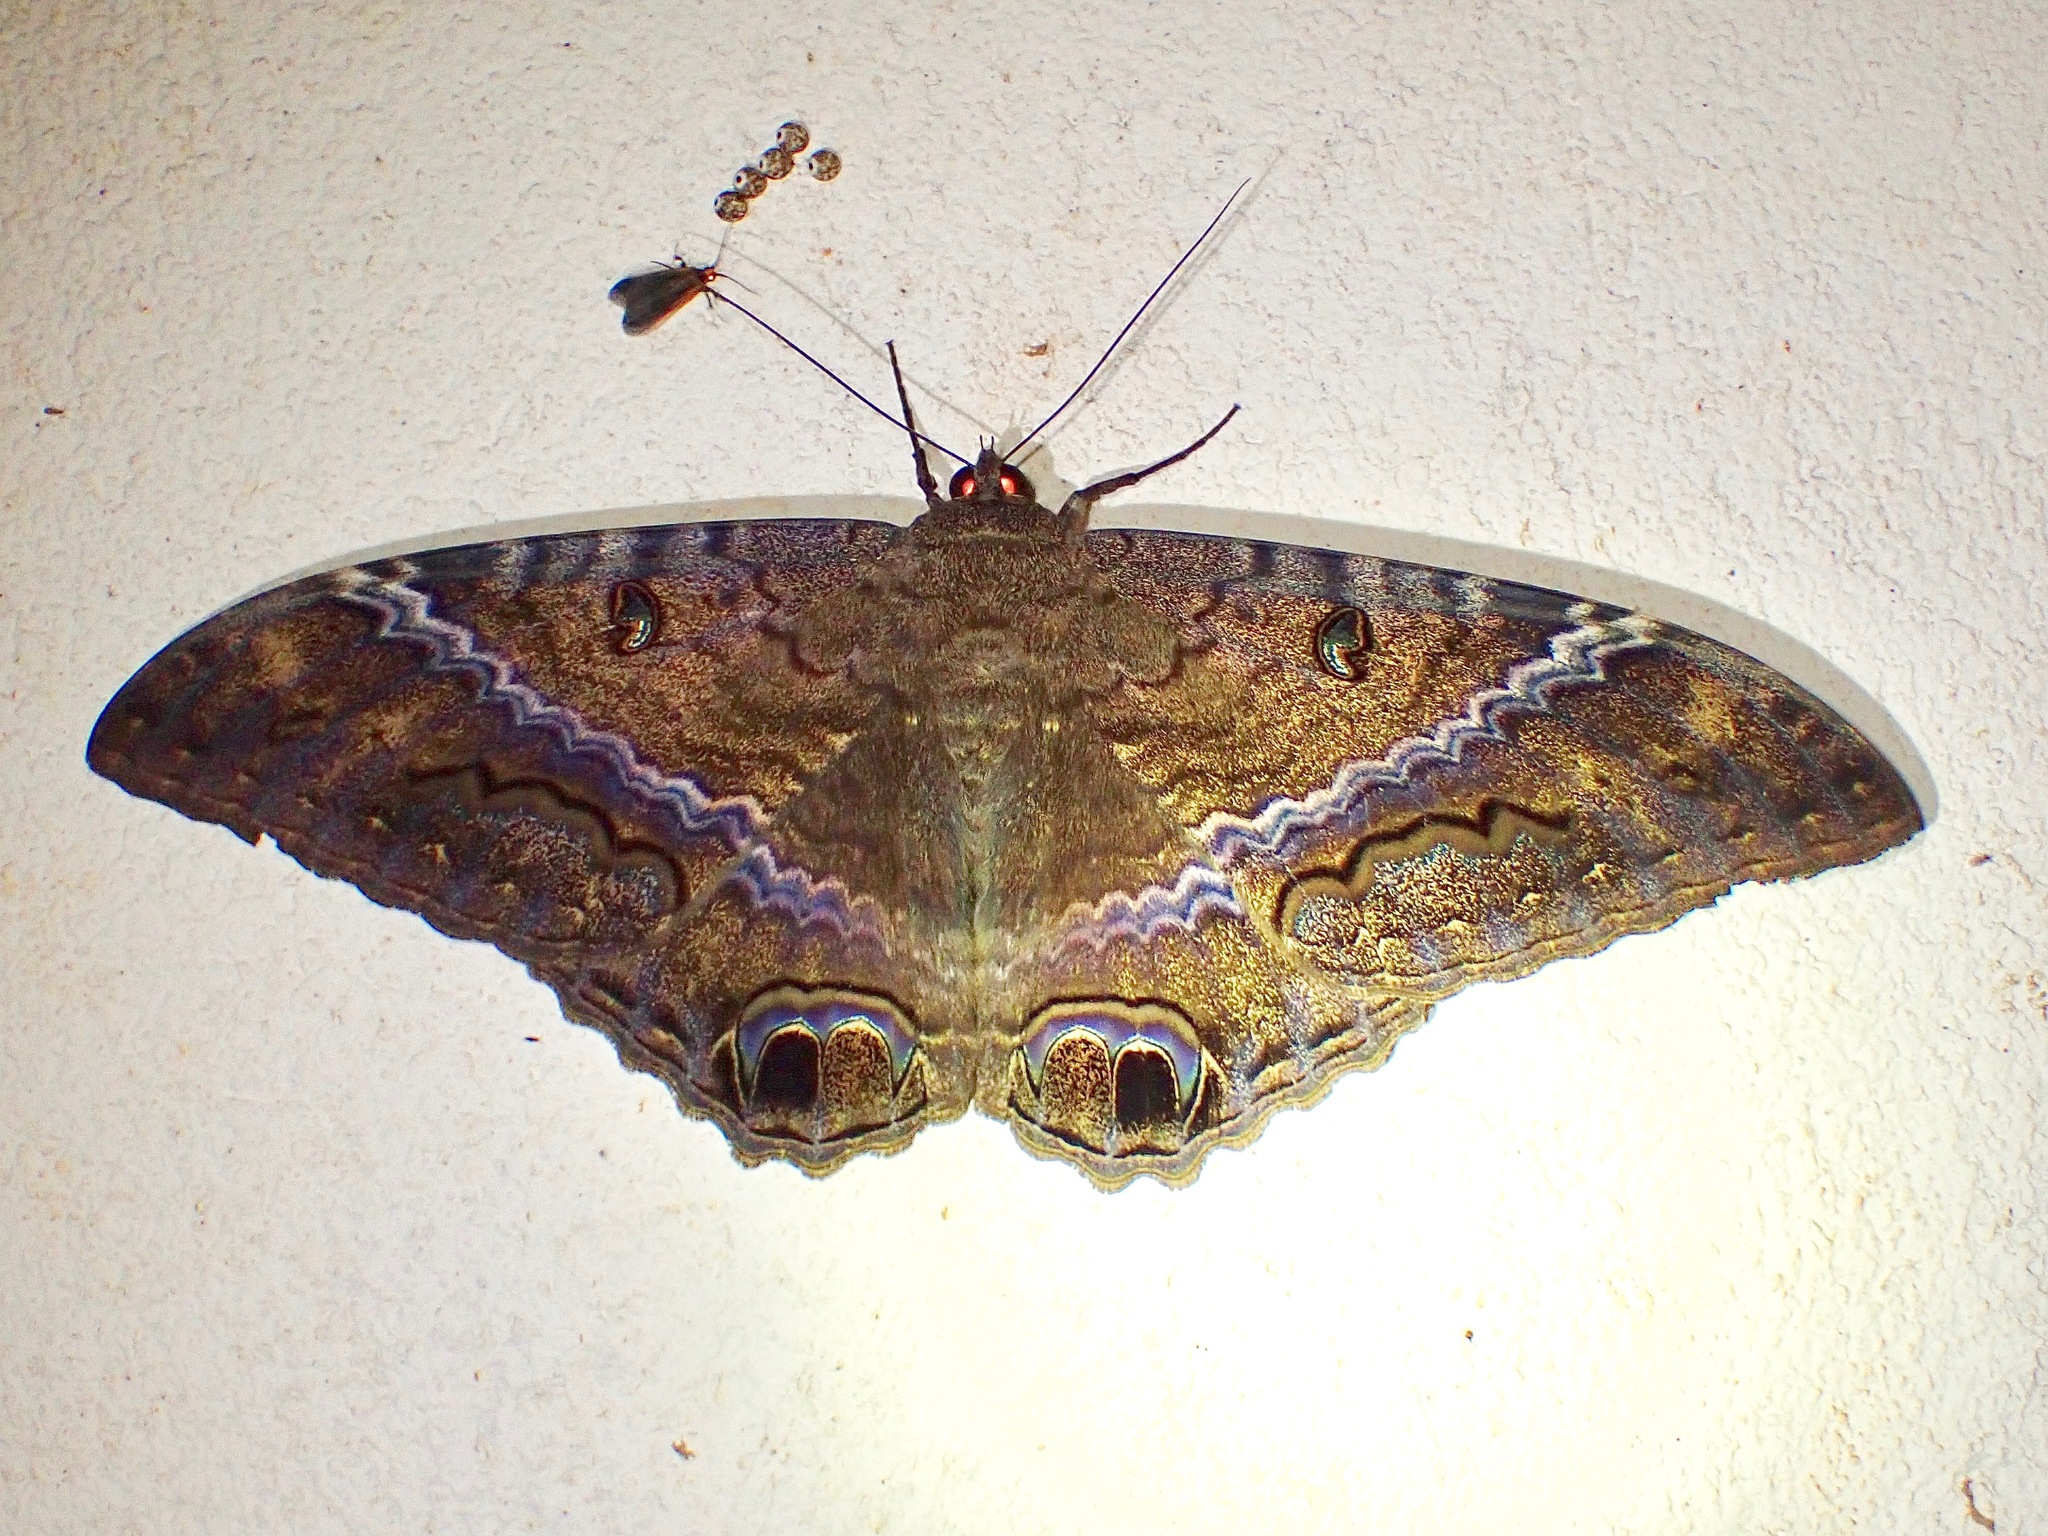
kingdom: Animalia
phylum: Arthropoda
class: Insecta
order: Lepidoptera
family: Erebidae
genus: Ascalapha
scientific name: Ascalapha odorata
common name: Black witch
